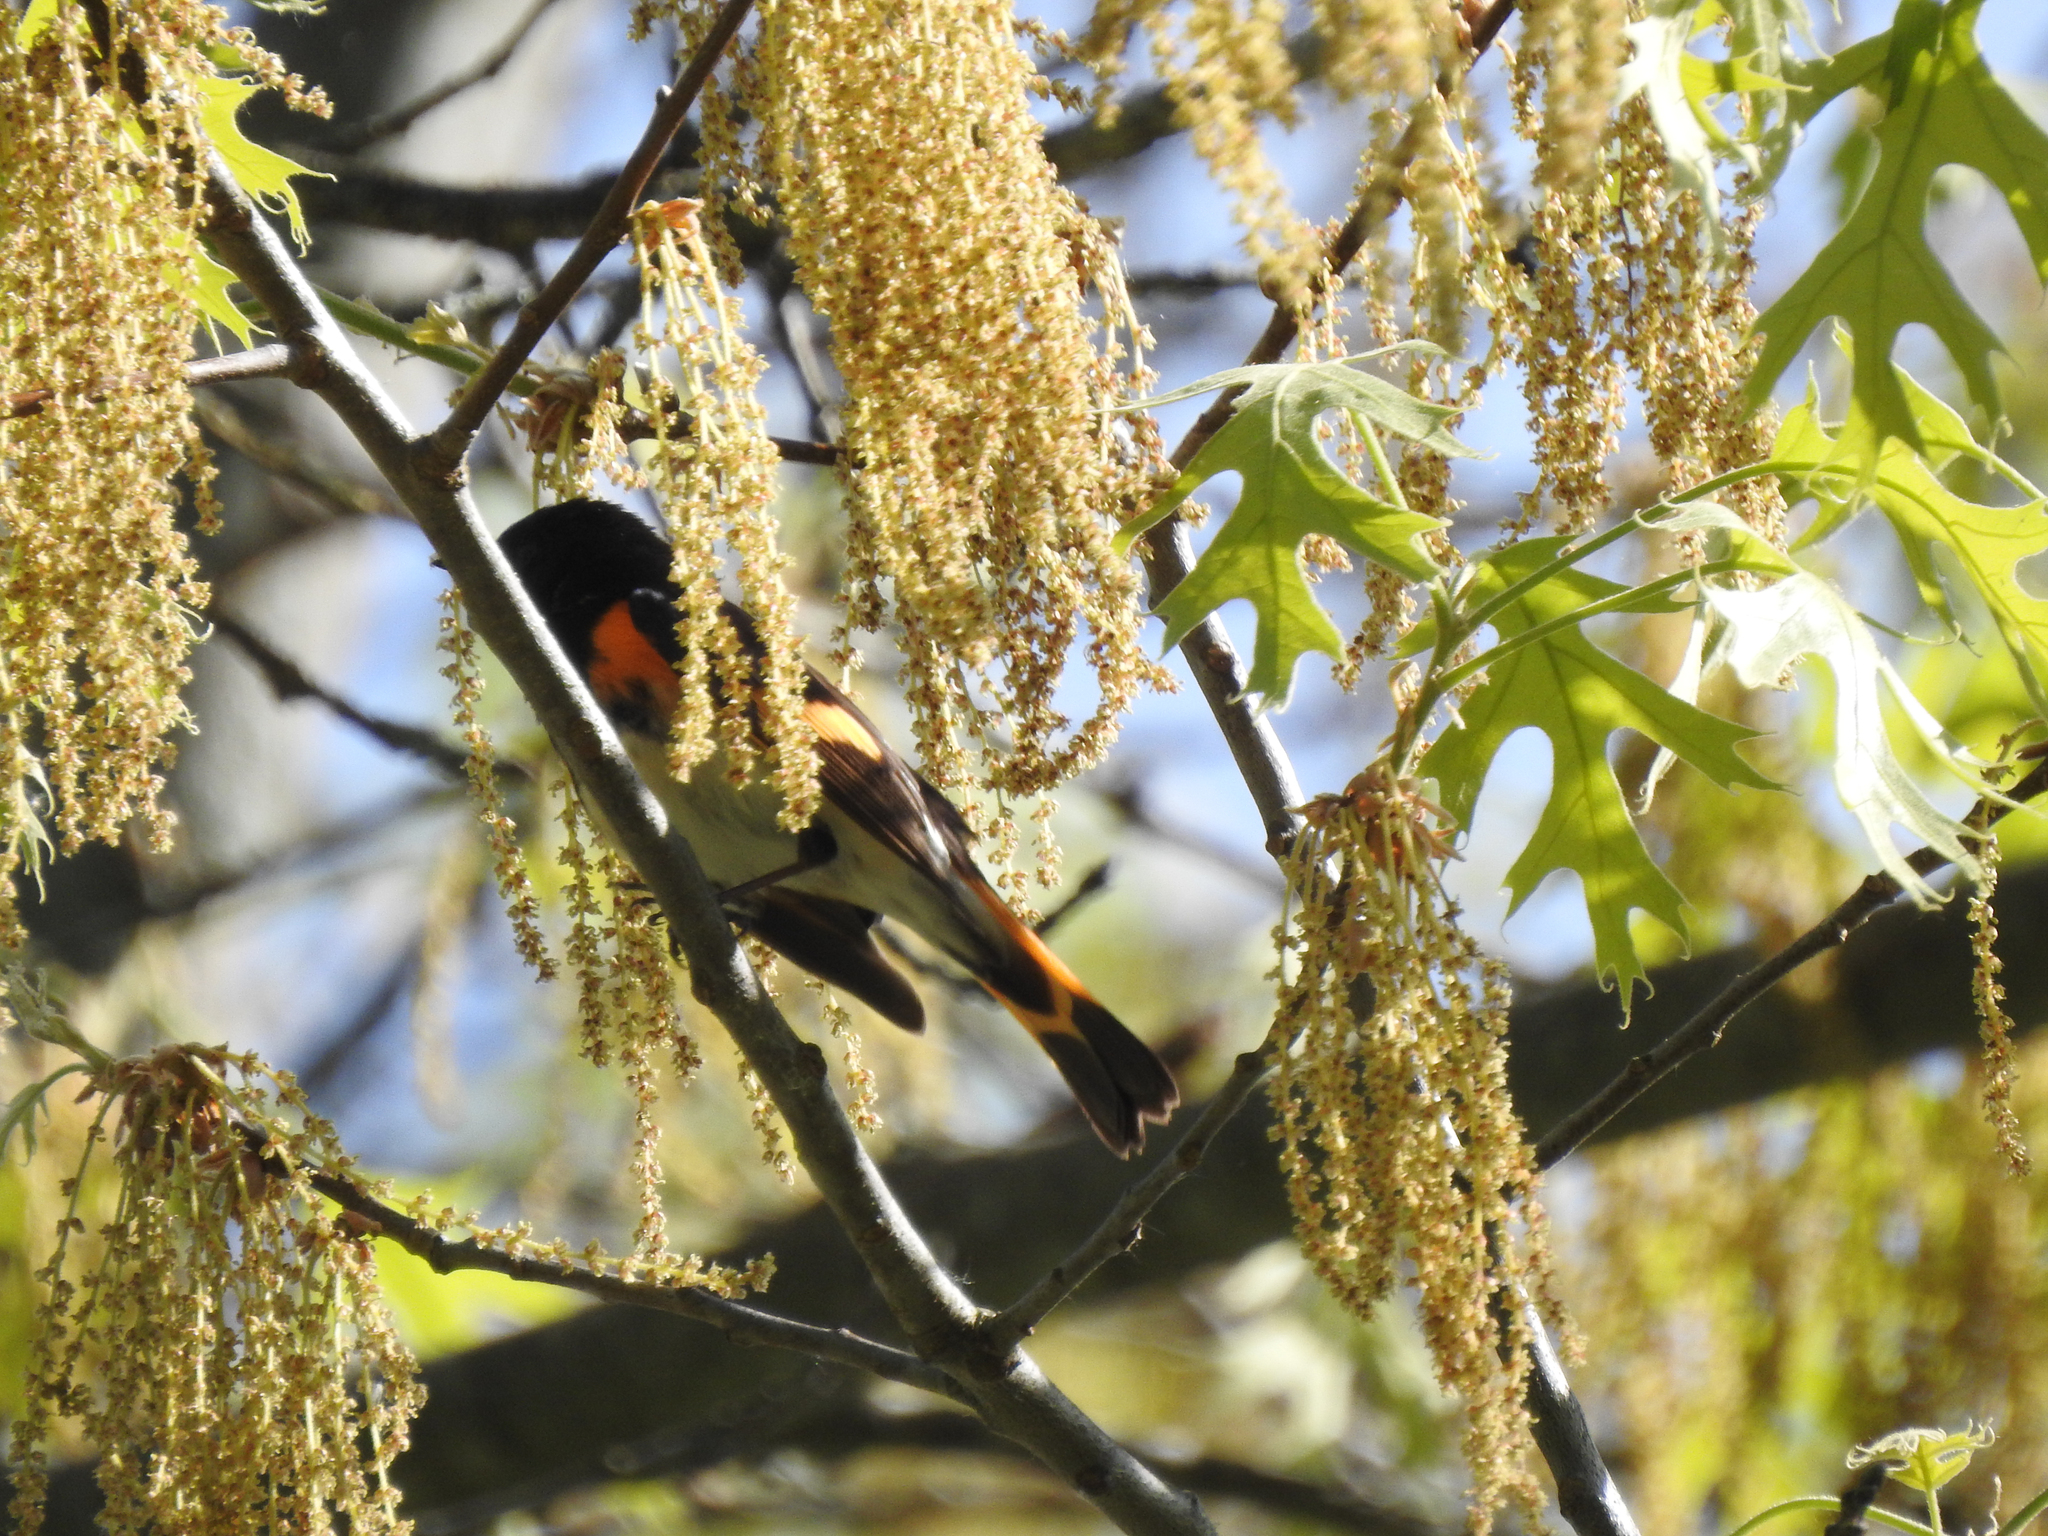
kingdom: Animalia
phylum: Chordata
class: Aves
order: Passeriformes
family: Parulidae
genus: Setophaga
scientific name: Setophaga ruticilla
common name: American redstart
